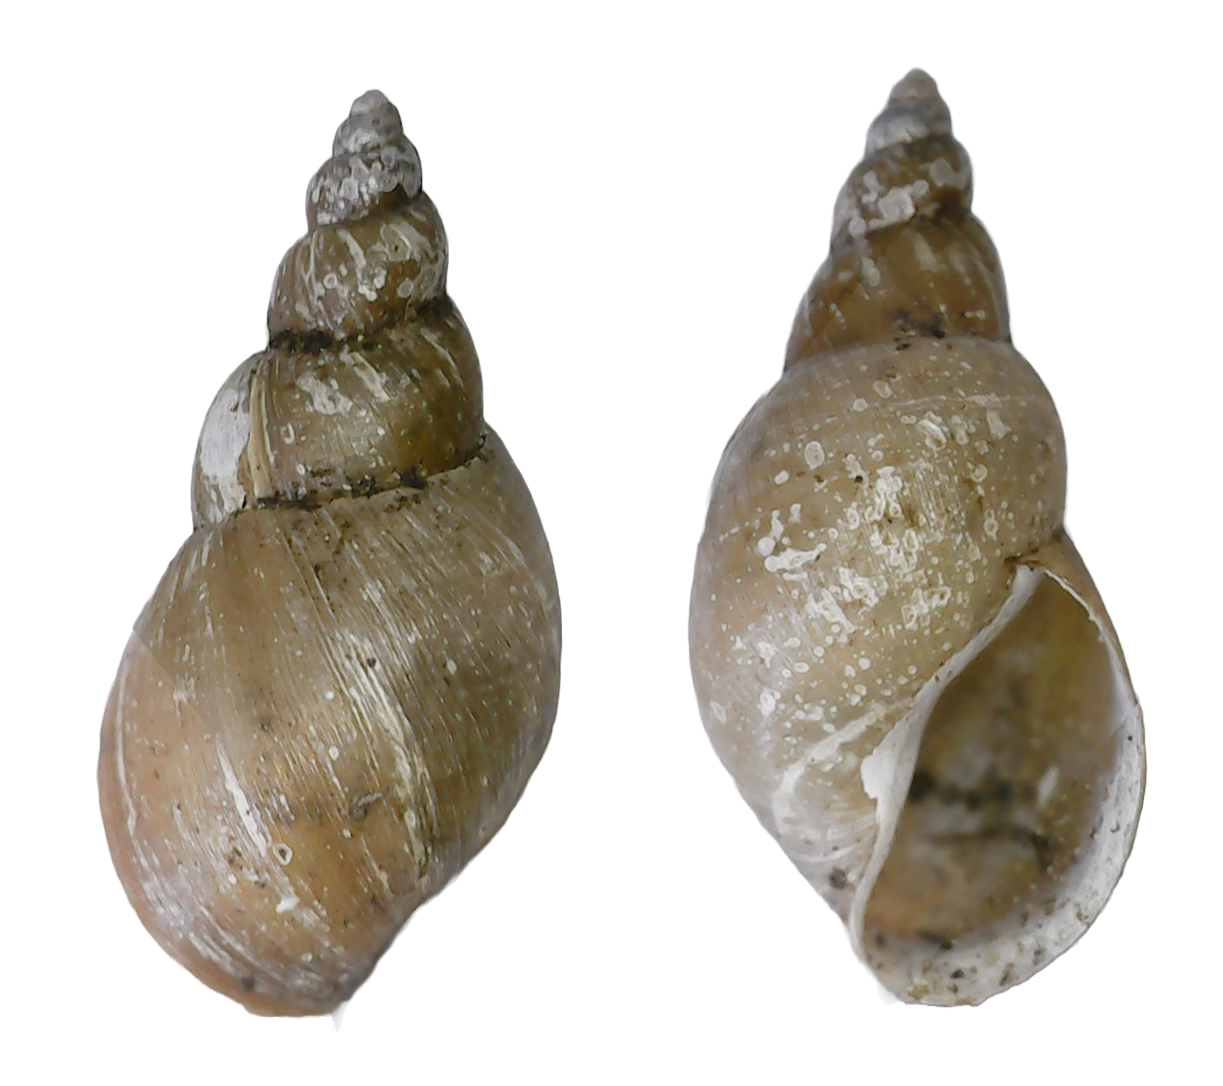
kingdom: Animalia
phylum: Mollusca
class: Gastropoda
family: Lymnaeidae
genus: Galba
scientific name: Galba truncatula
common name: Dwarf pond snail
